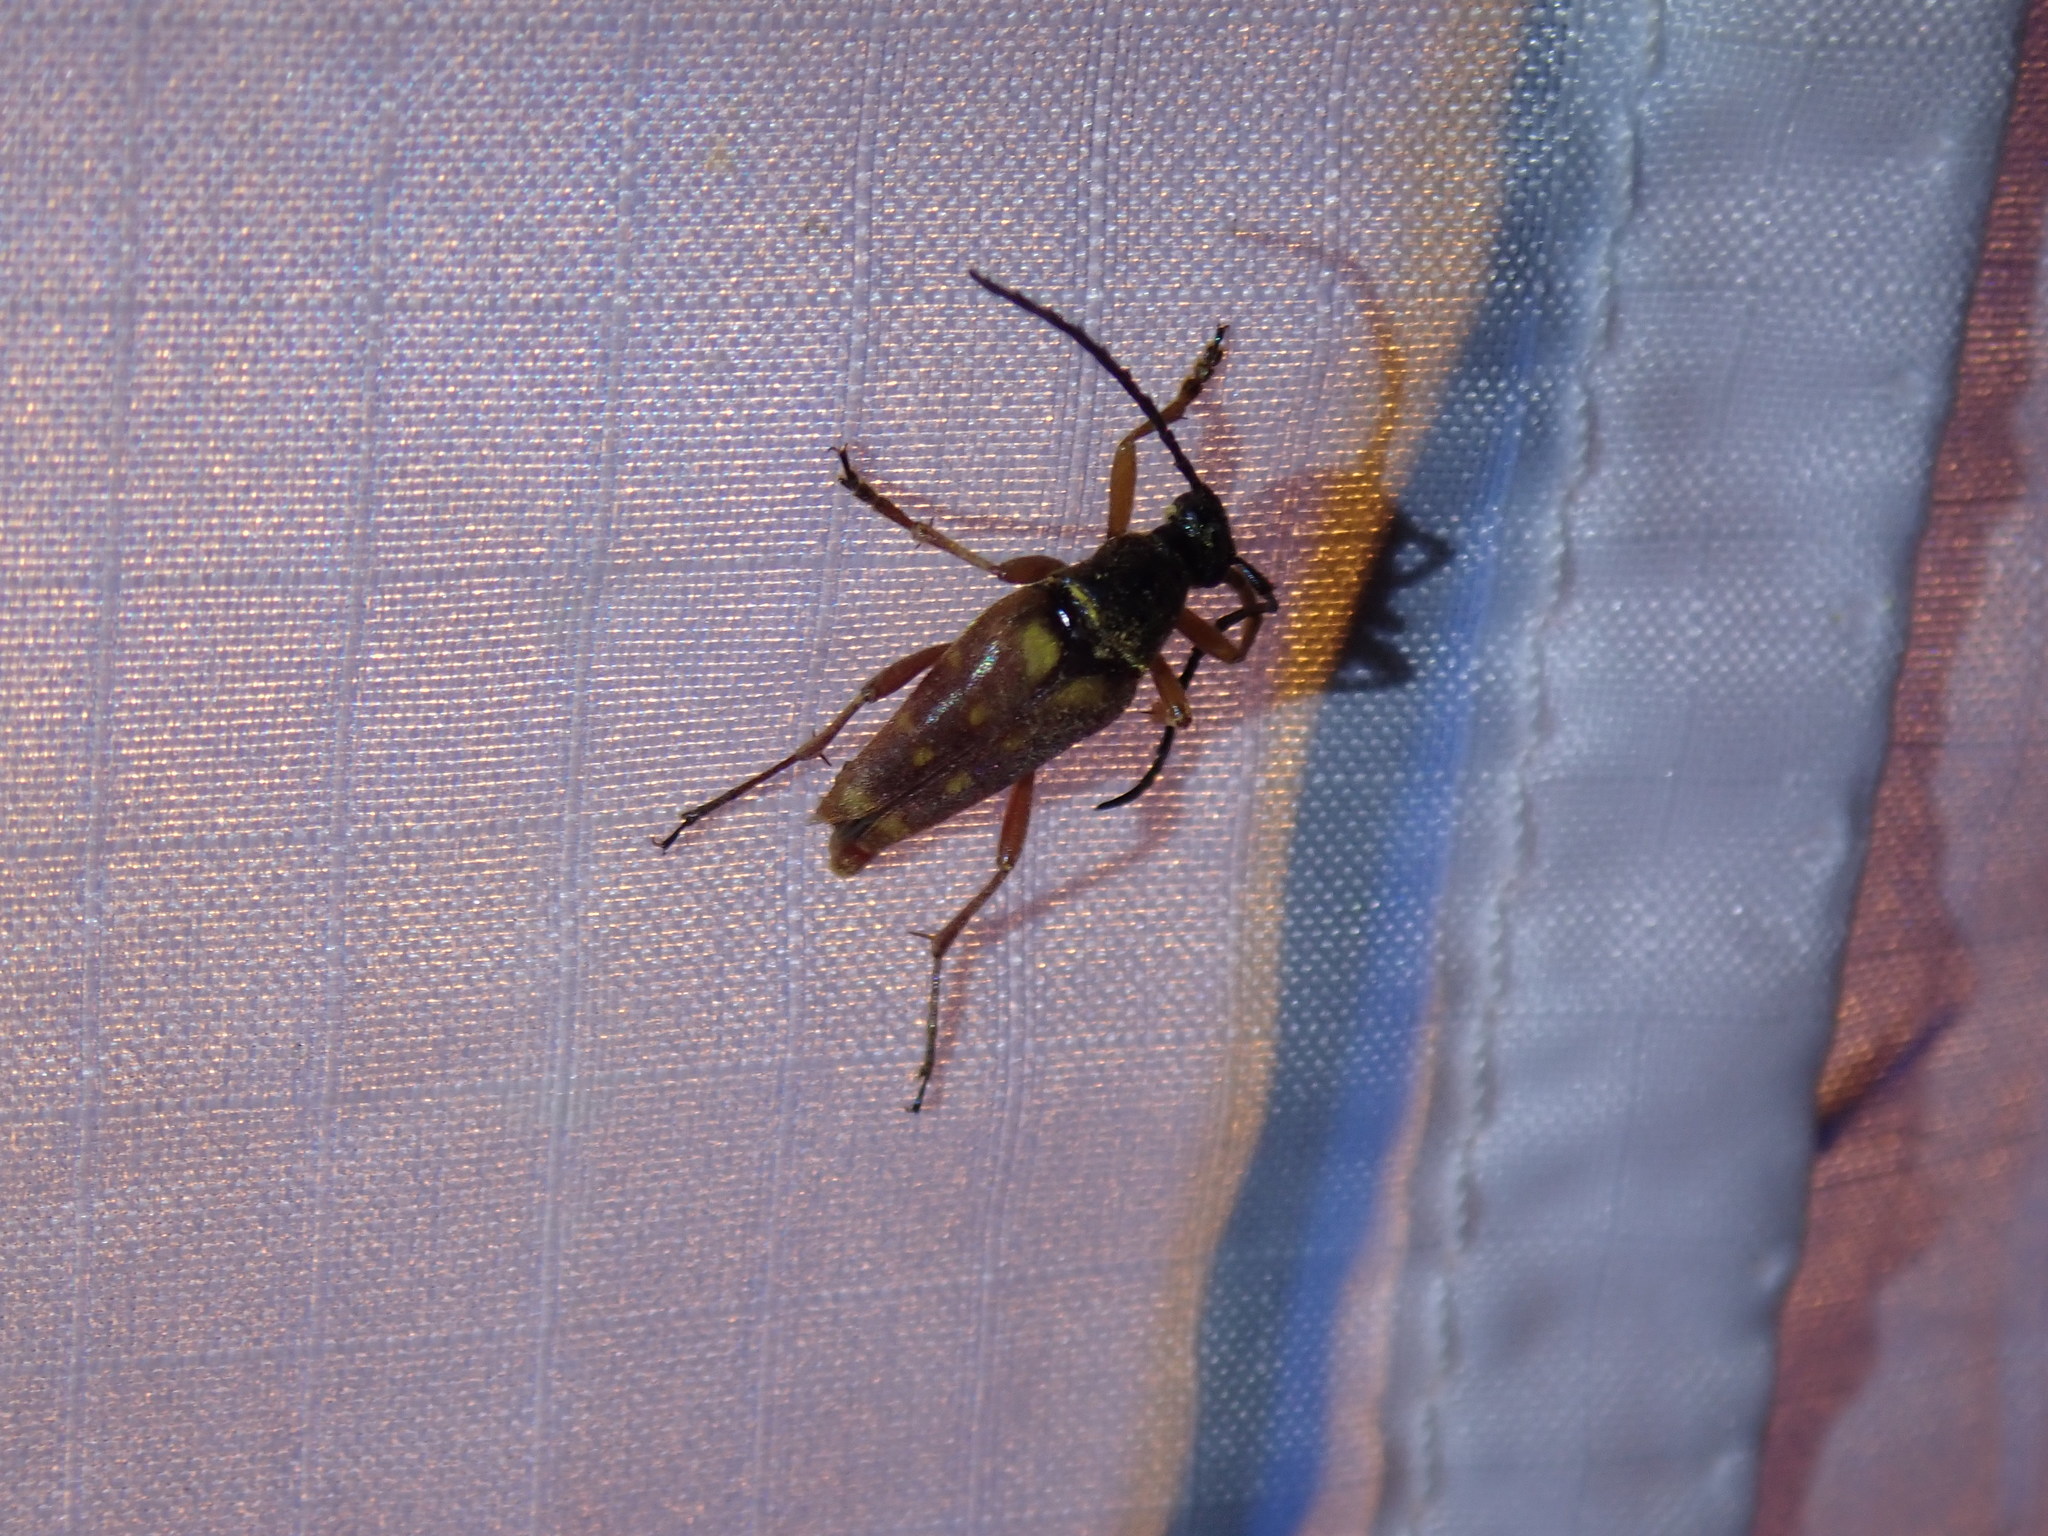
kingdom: Animalia
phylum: Arthropoda
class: Insecta
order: Coleoptera
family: Cerambycidae
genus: Typocerus
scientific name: Typocerus velutinus
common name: Banded longhorn beetle
